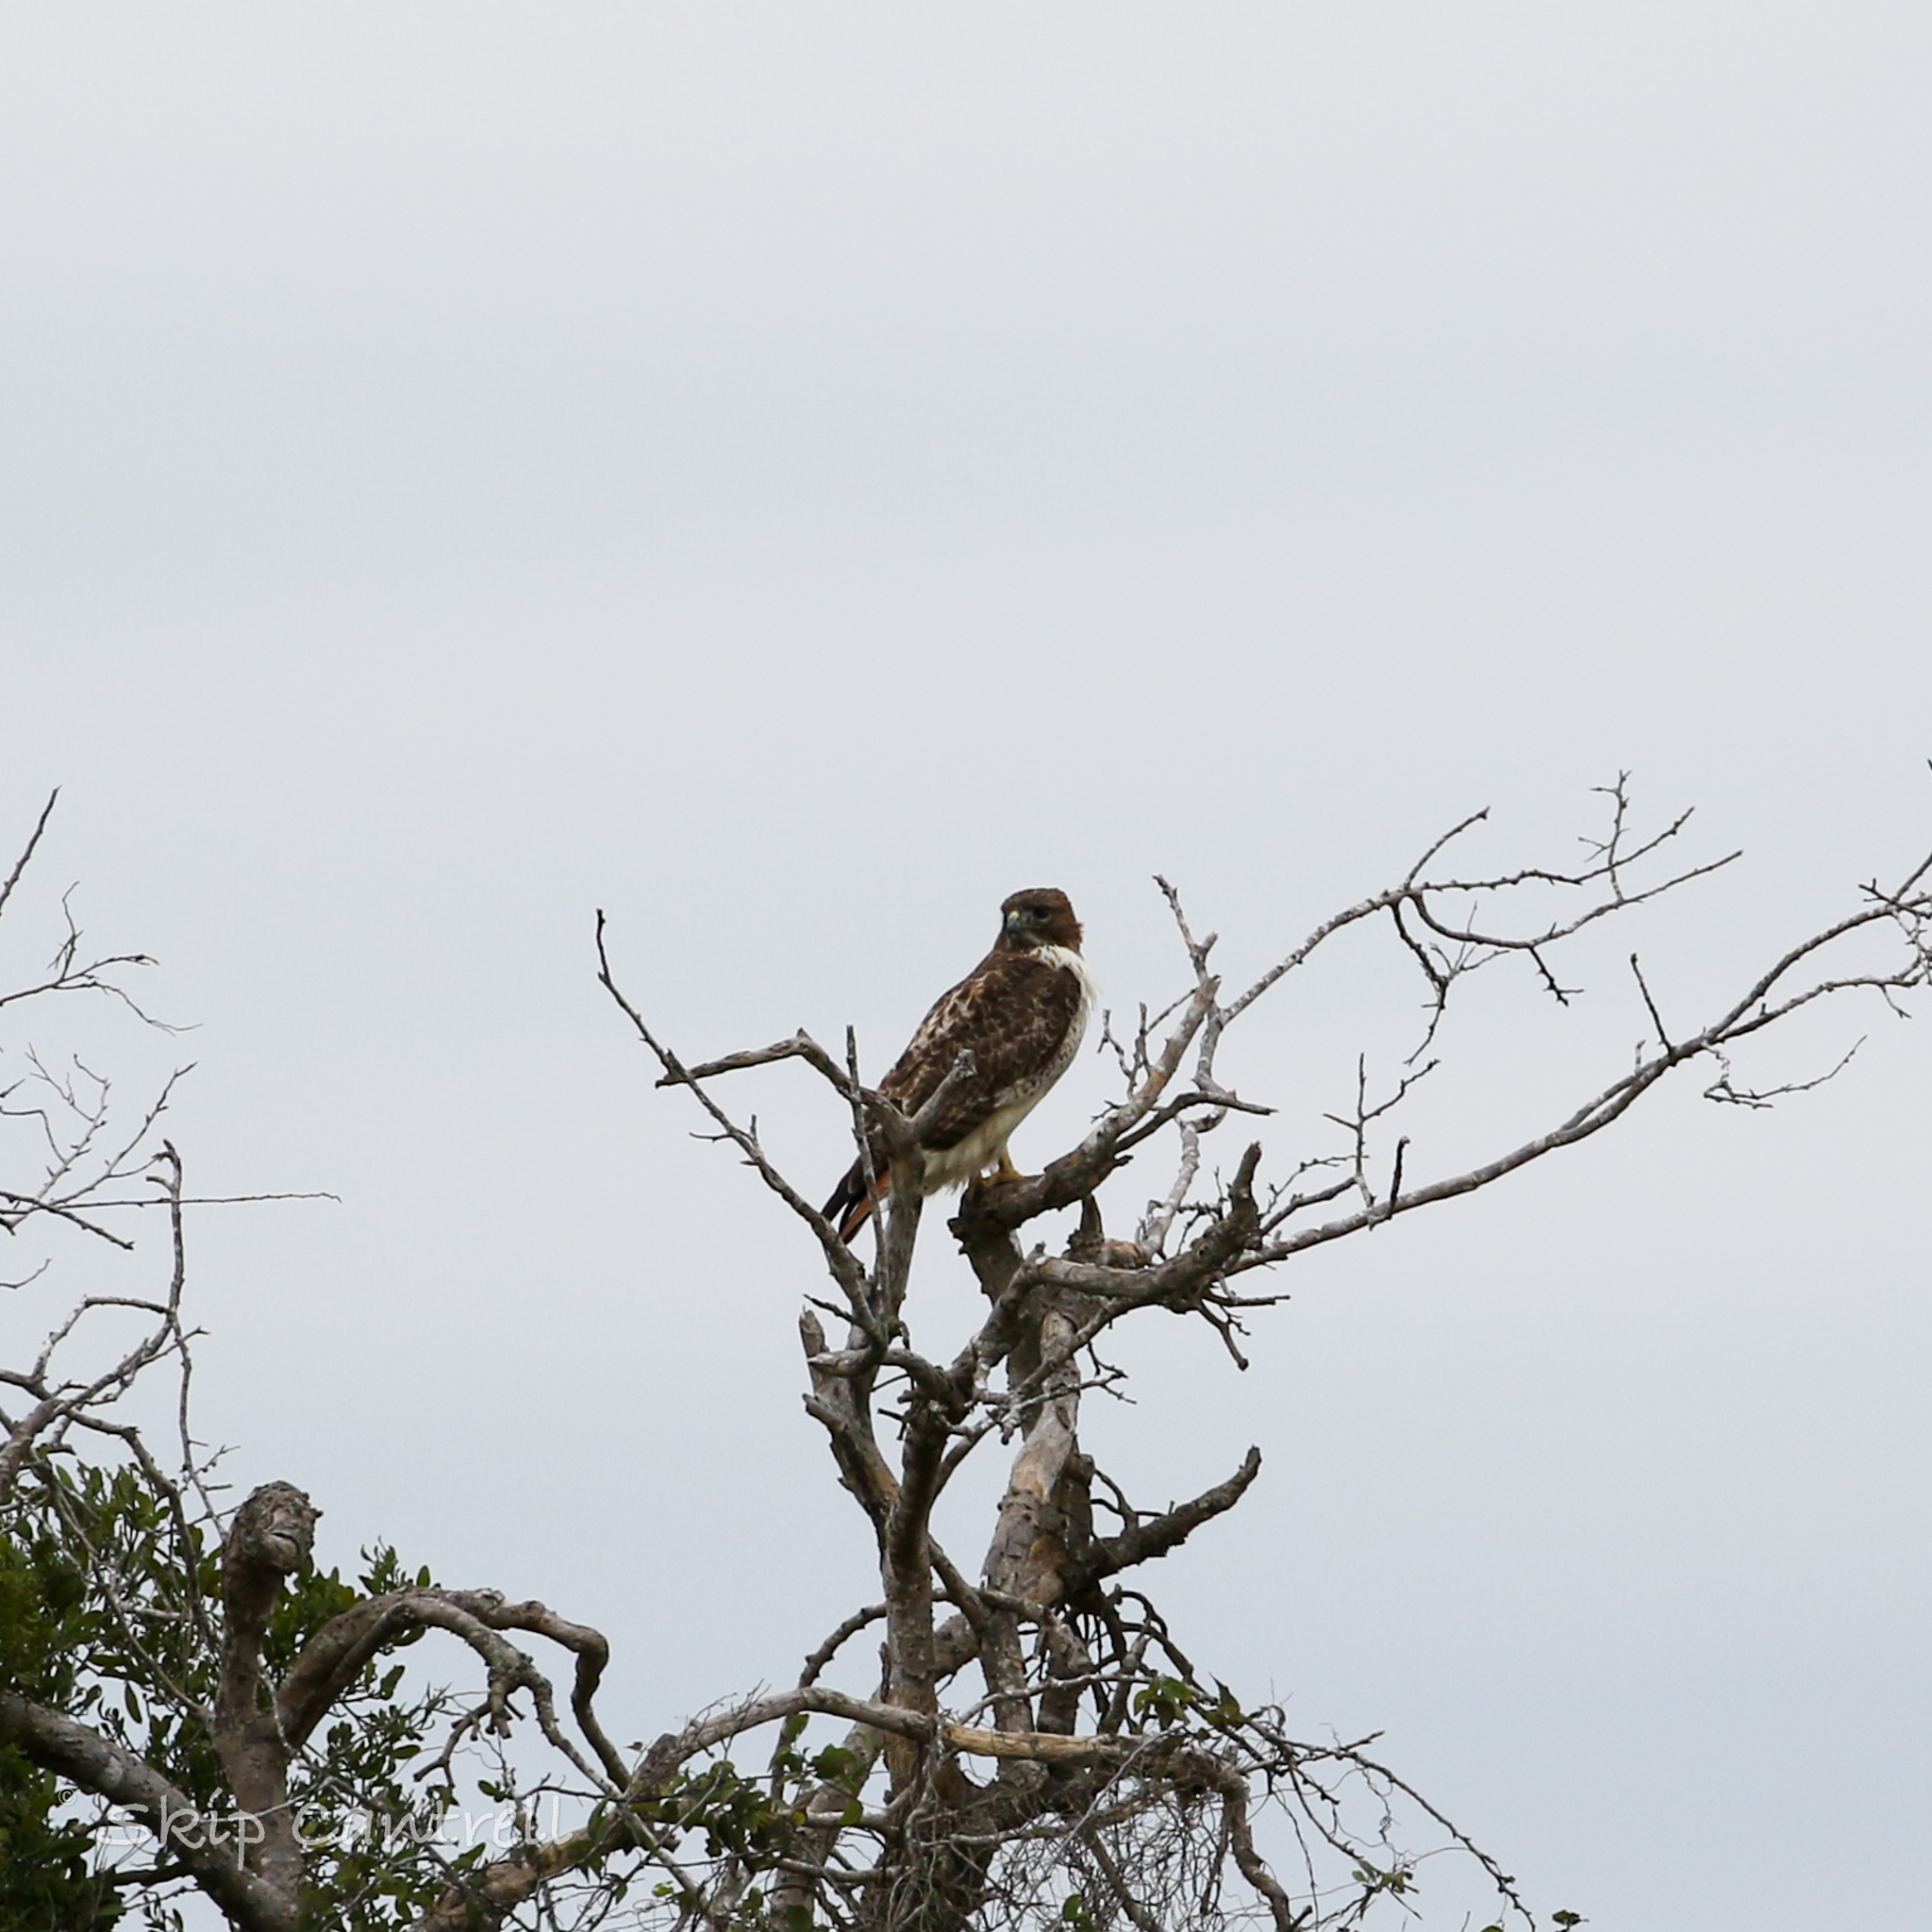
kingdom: Animalia
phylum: Chordata
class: Aves
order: Accipitriformes
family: Accipitridae
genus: Buteo
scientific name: Buteo jamaicensis
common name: Red-tailed hawk
